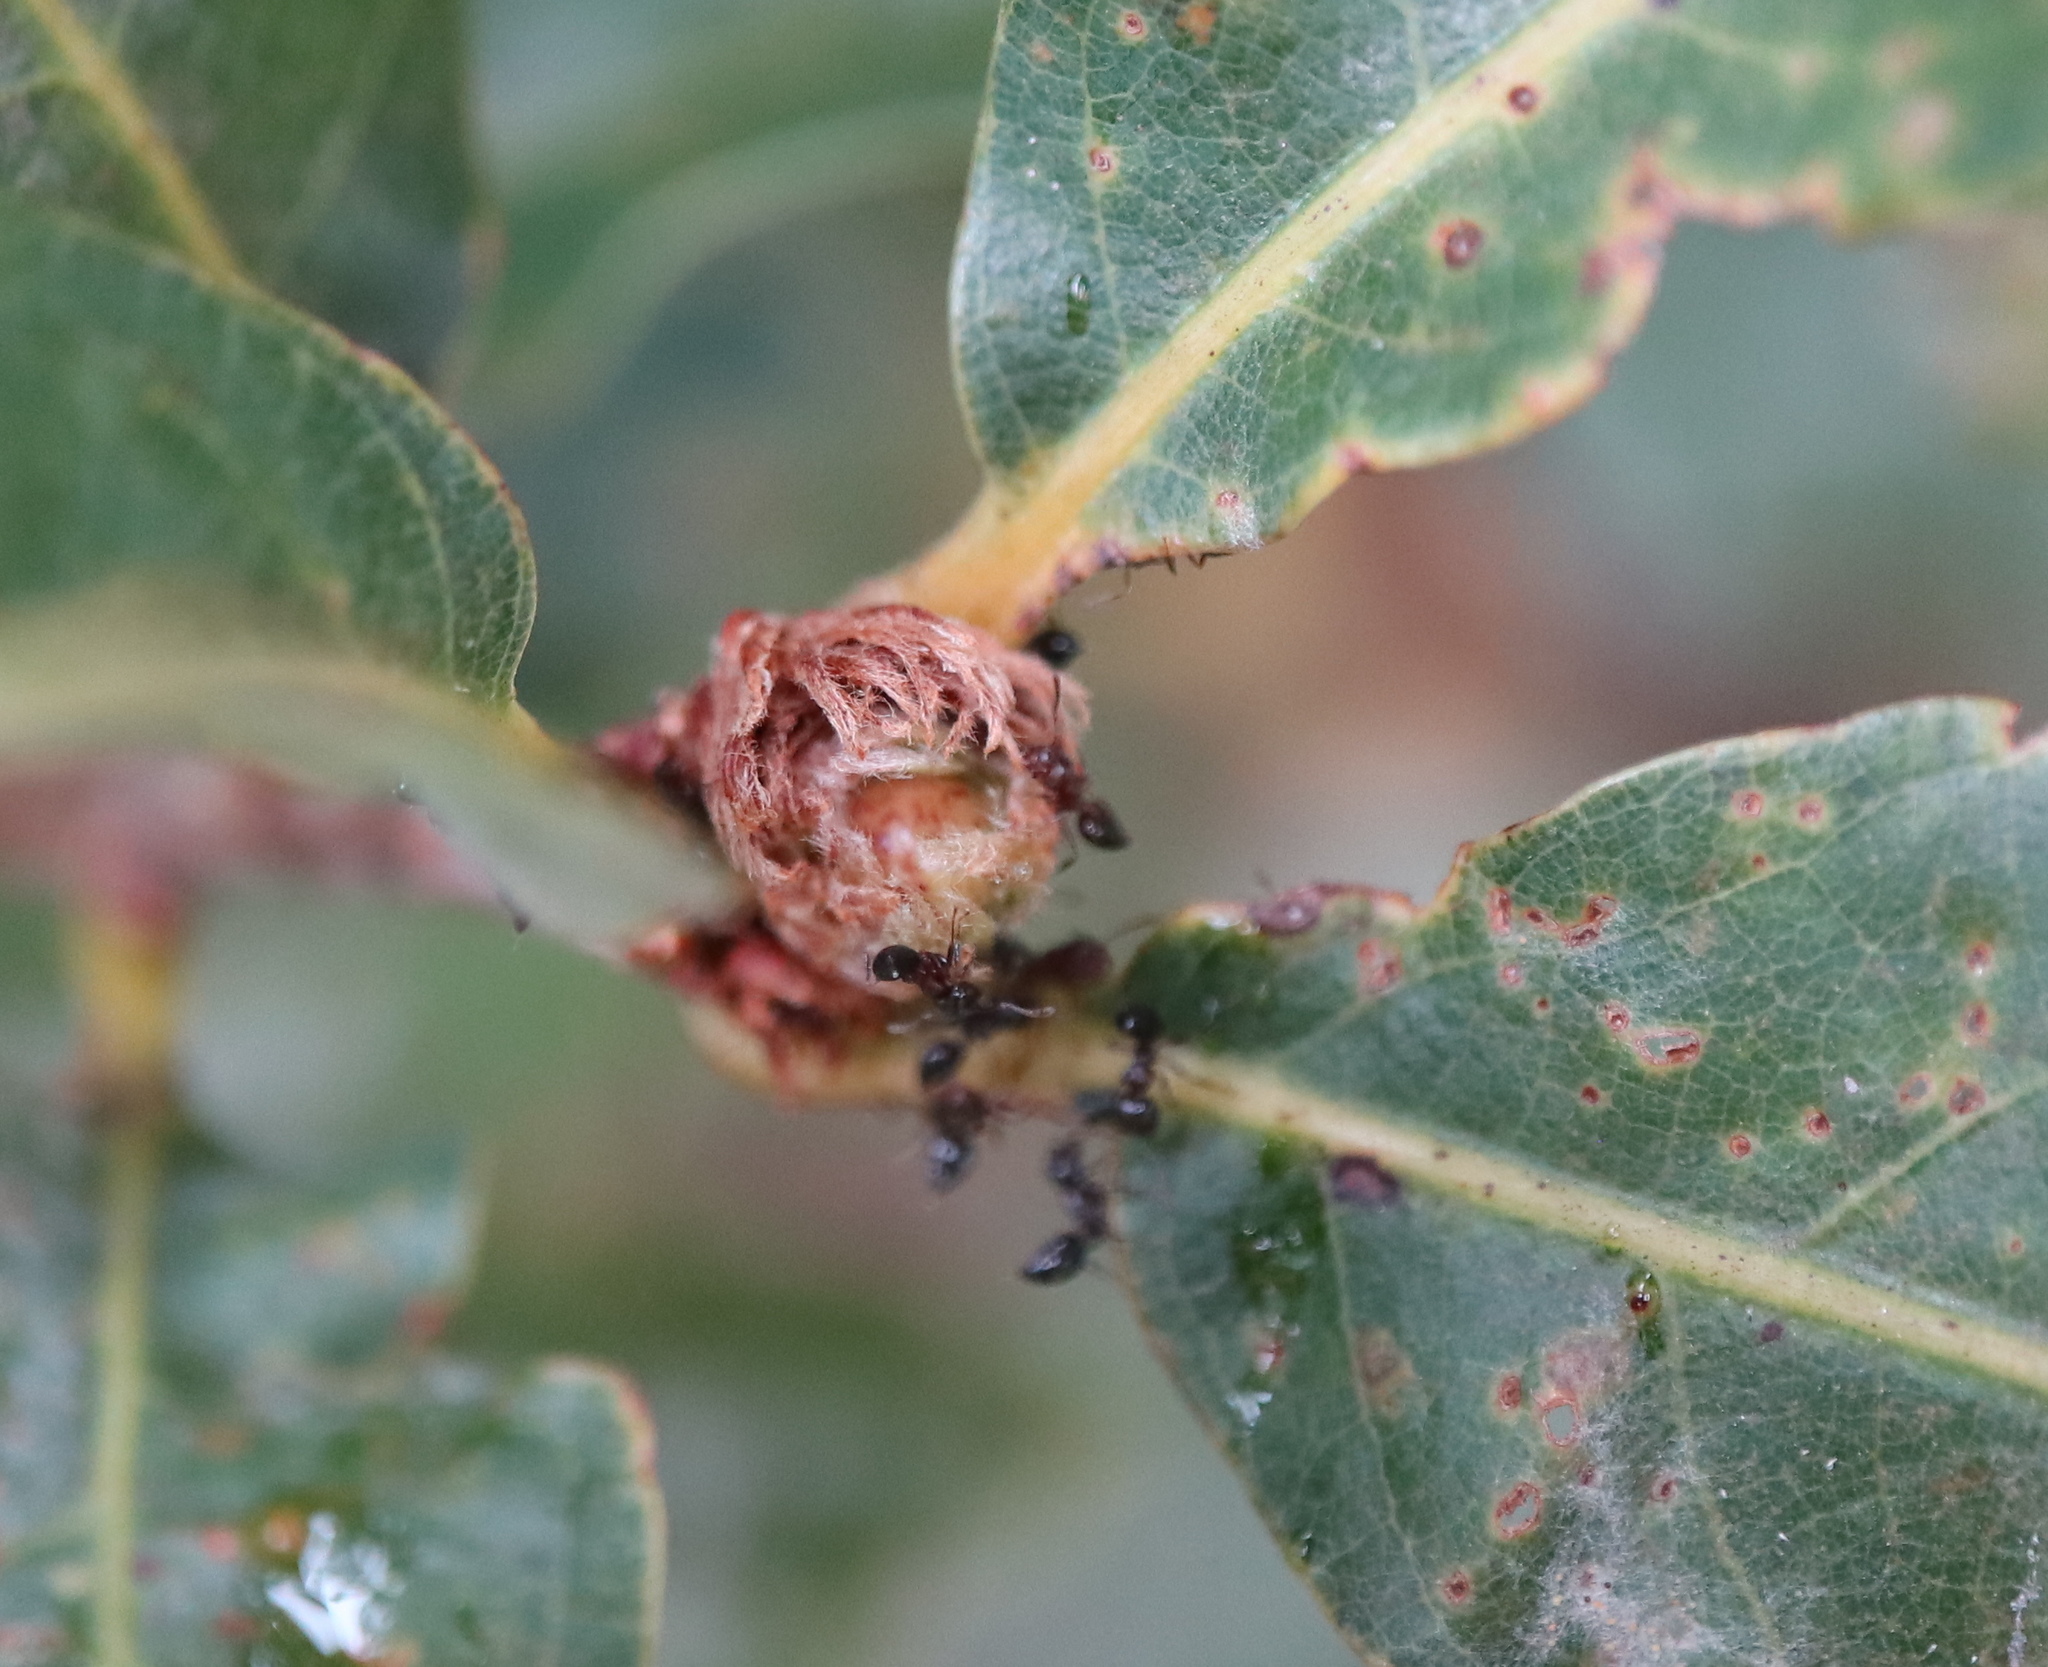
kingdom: Animalia
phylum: Arthropoda
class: Insecta
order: Hymenoptera
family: Cynipidae
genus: Andricus
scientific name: Andricus
